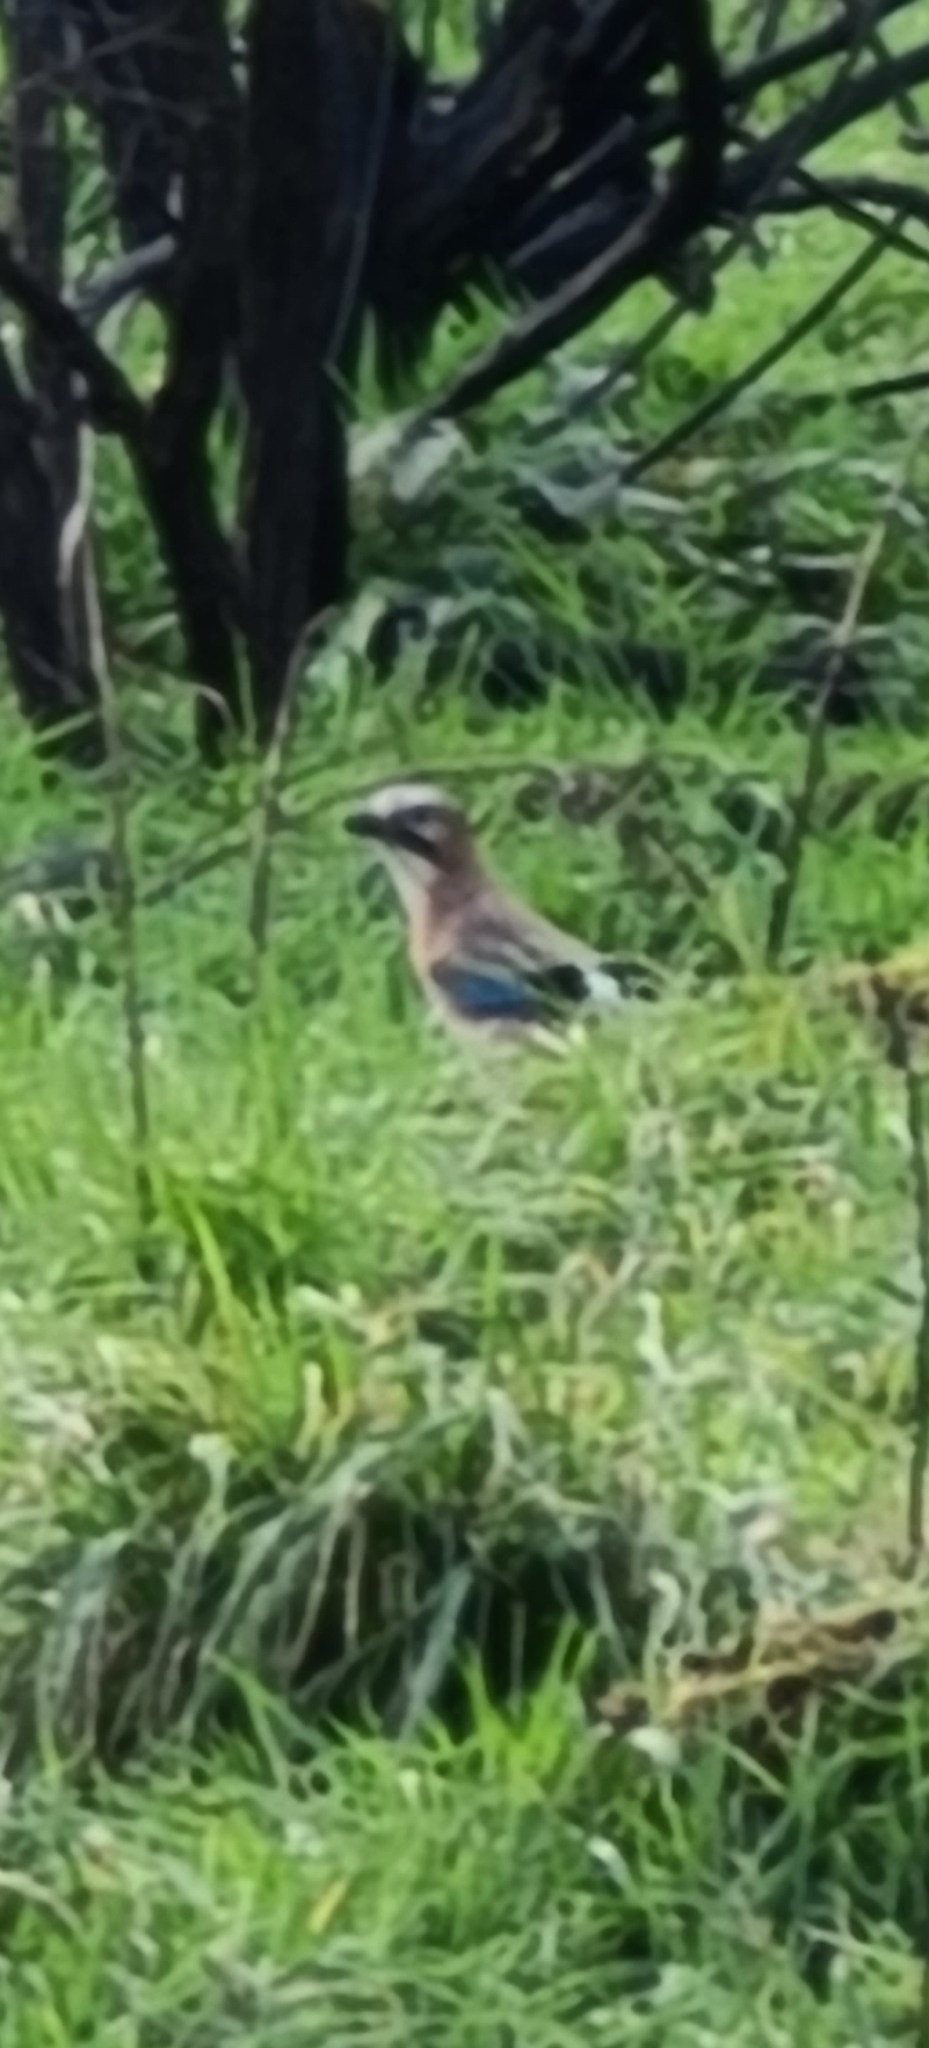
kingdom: Animalia
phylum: Chordata
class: Aves
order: Passeriformes
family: Corvidae
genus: Garrulus
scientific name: Garrulus glandarius
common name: Eurasian jay
